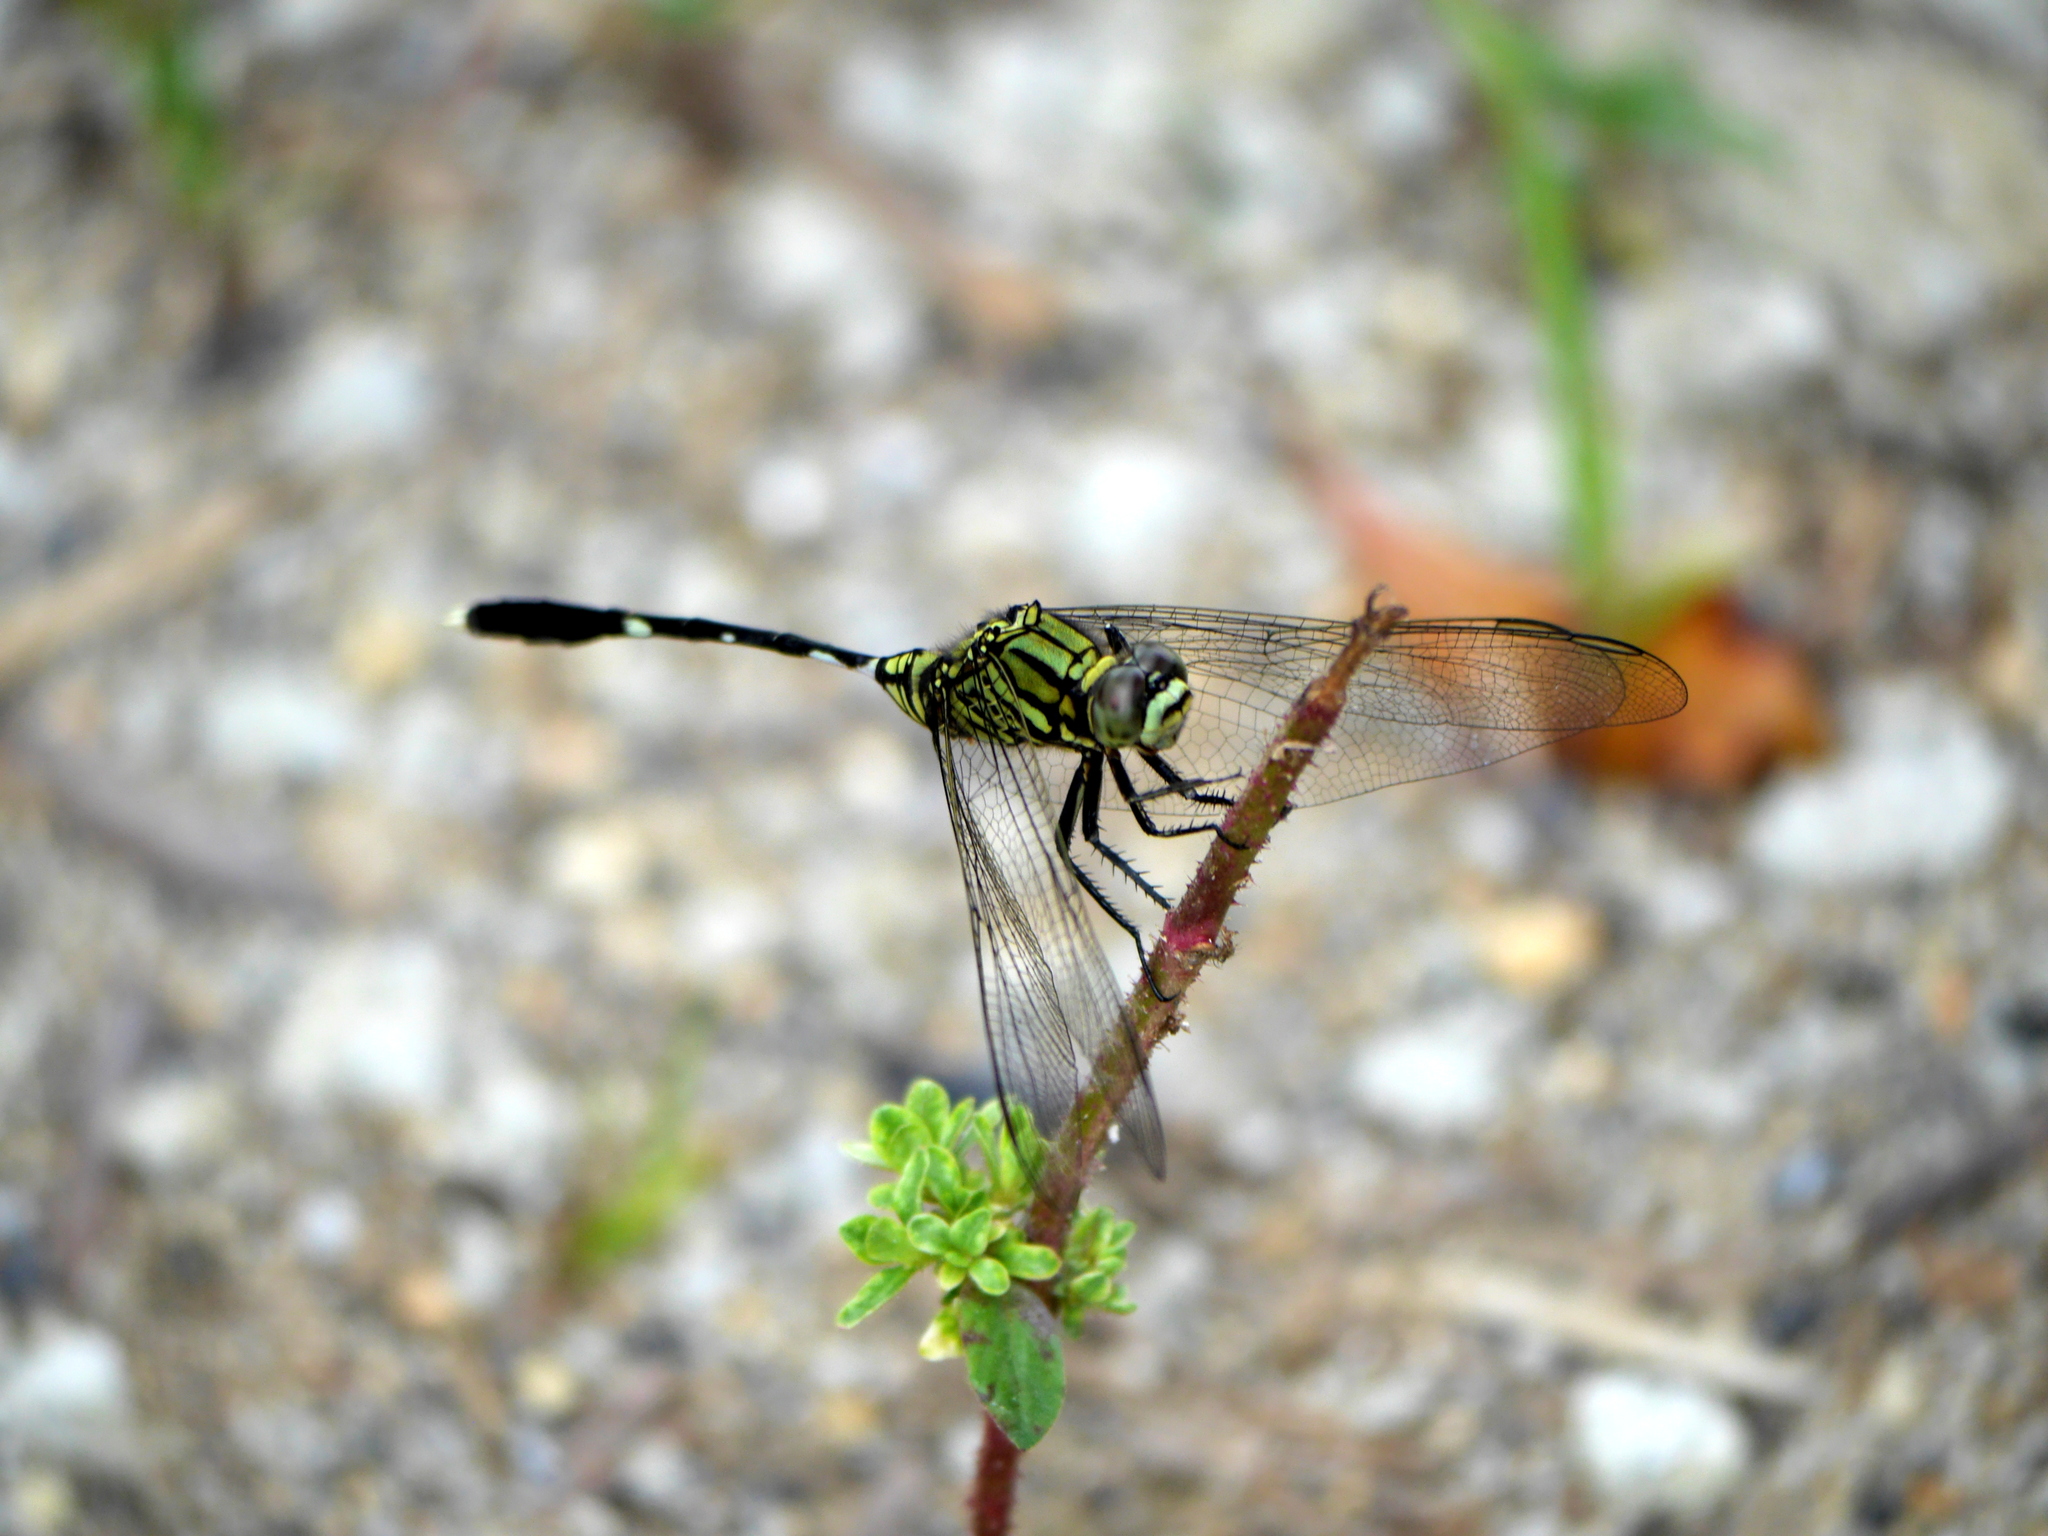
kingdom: Animalia
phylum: Arthropoda
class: Insecta
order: Odonata
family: Libellulidae
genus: Orthetrum
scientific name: Orthetrum sabina
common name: Slender skimmer
